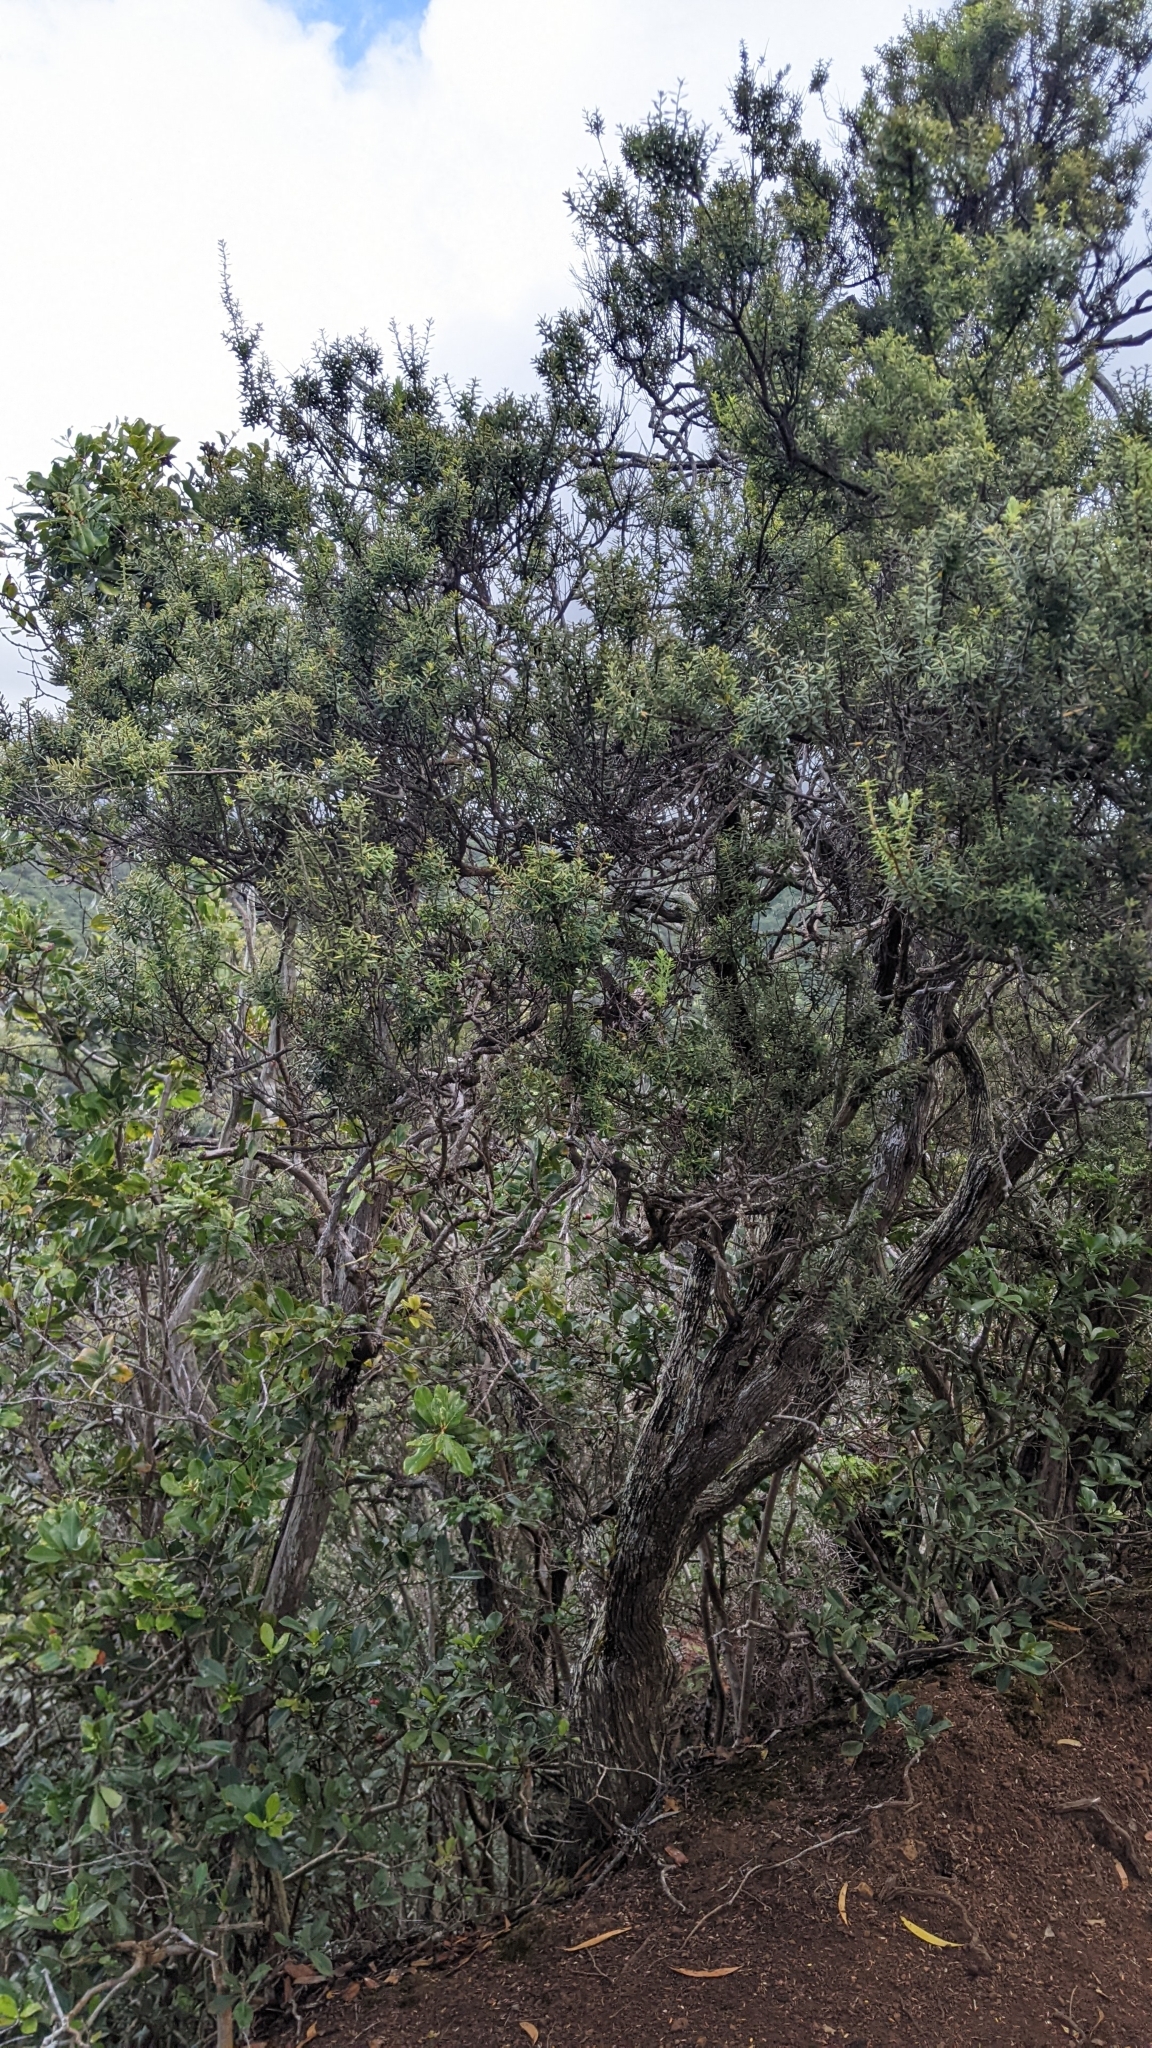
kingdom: Plantae
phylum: Tracheophyta
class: Magnoliopsida
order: Ericales
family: Ericaceae
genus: Leptecophylla
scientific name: Leptecophylla tameiameiae
